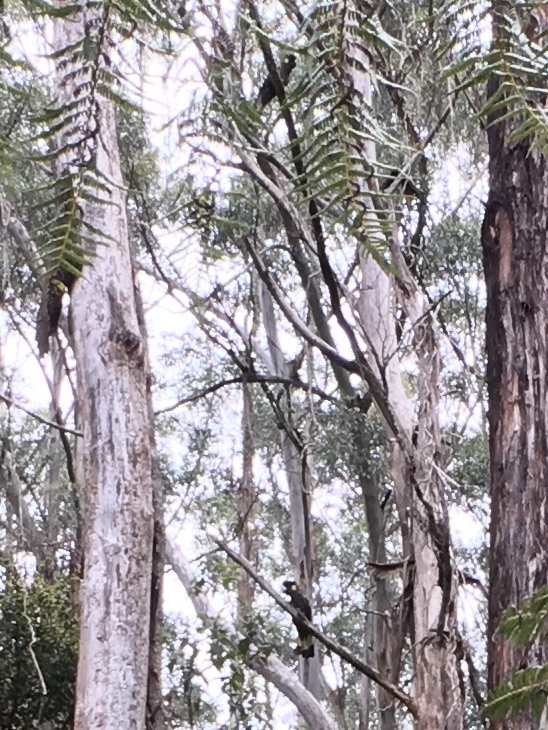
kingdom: Animalia
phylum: Chordata
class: Aves
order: Psittaciformes
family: Cacatuidae
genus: Zanda
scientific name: Zanda funerea
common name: Yellow-tailed black-cockatoo
